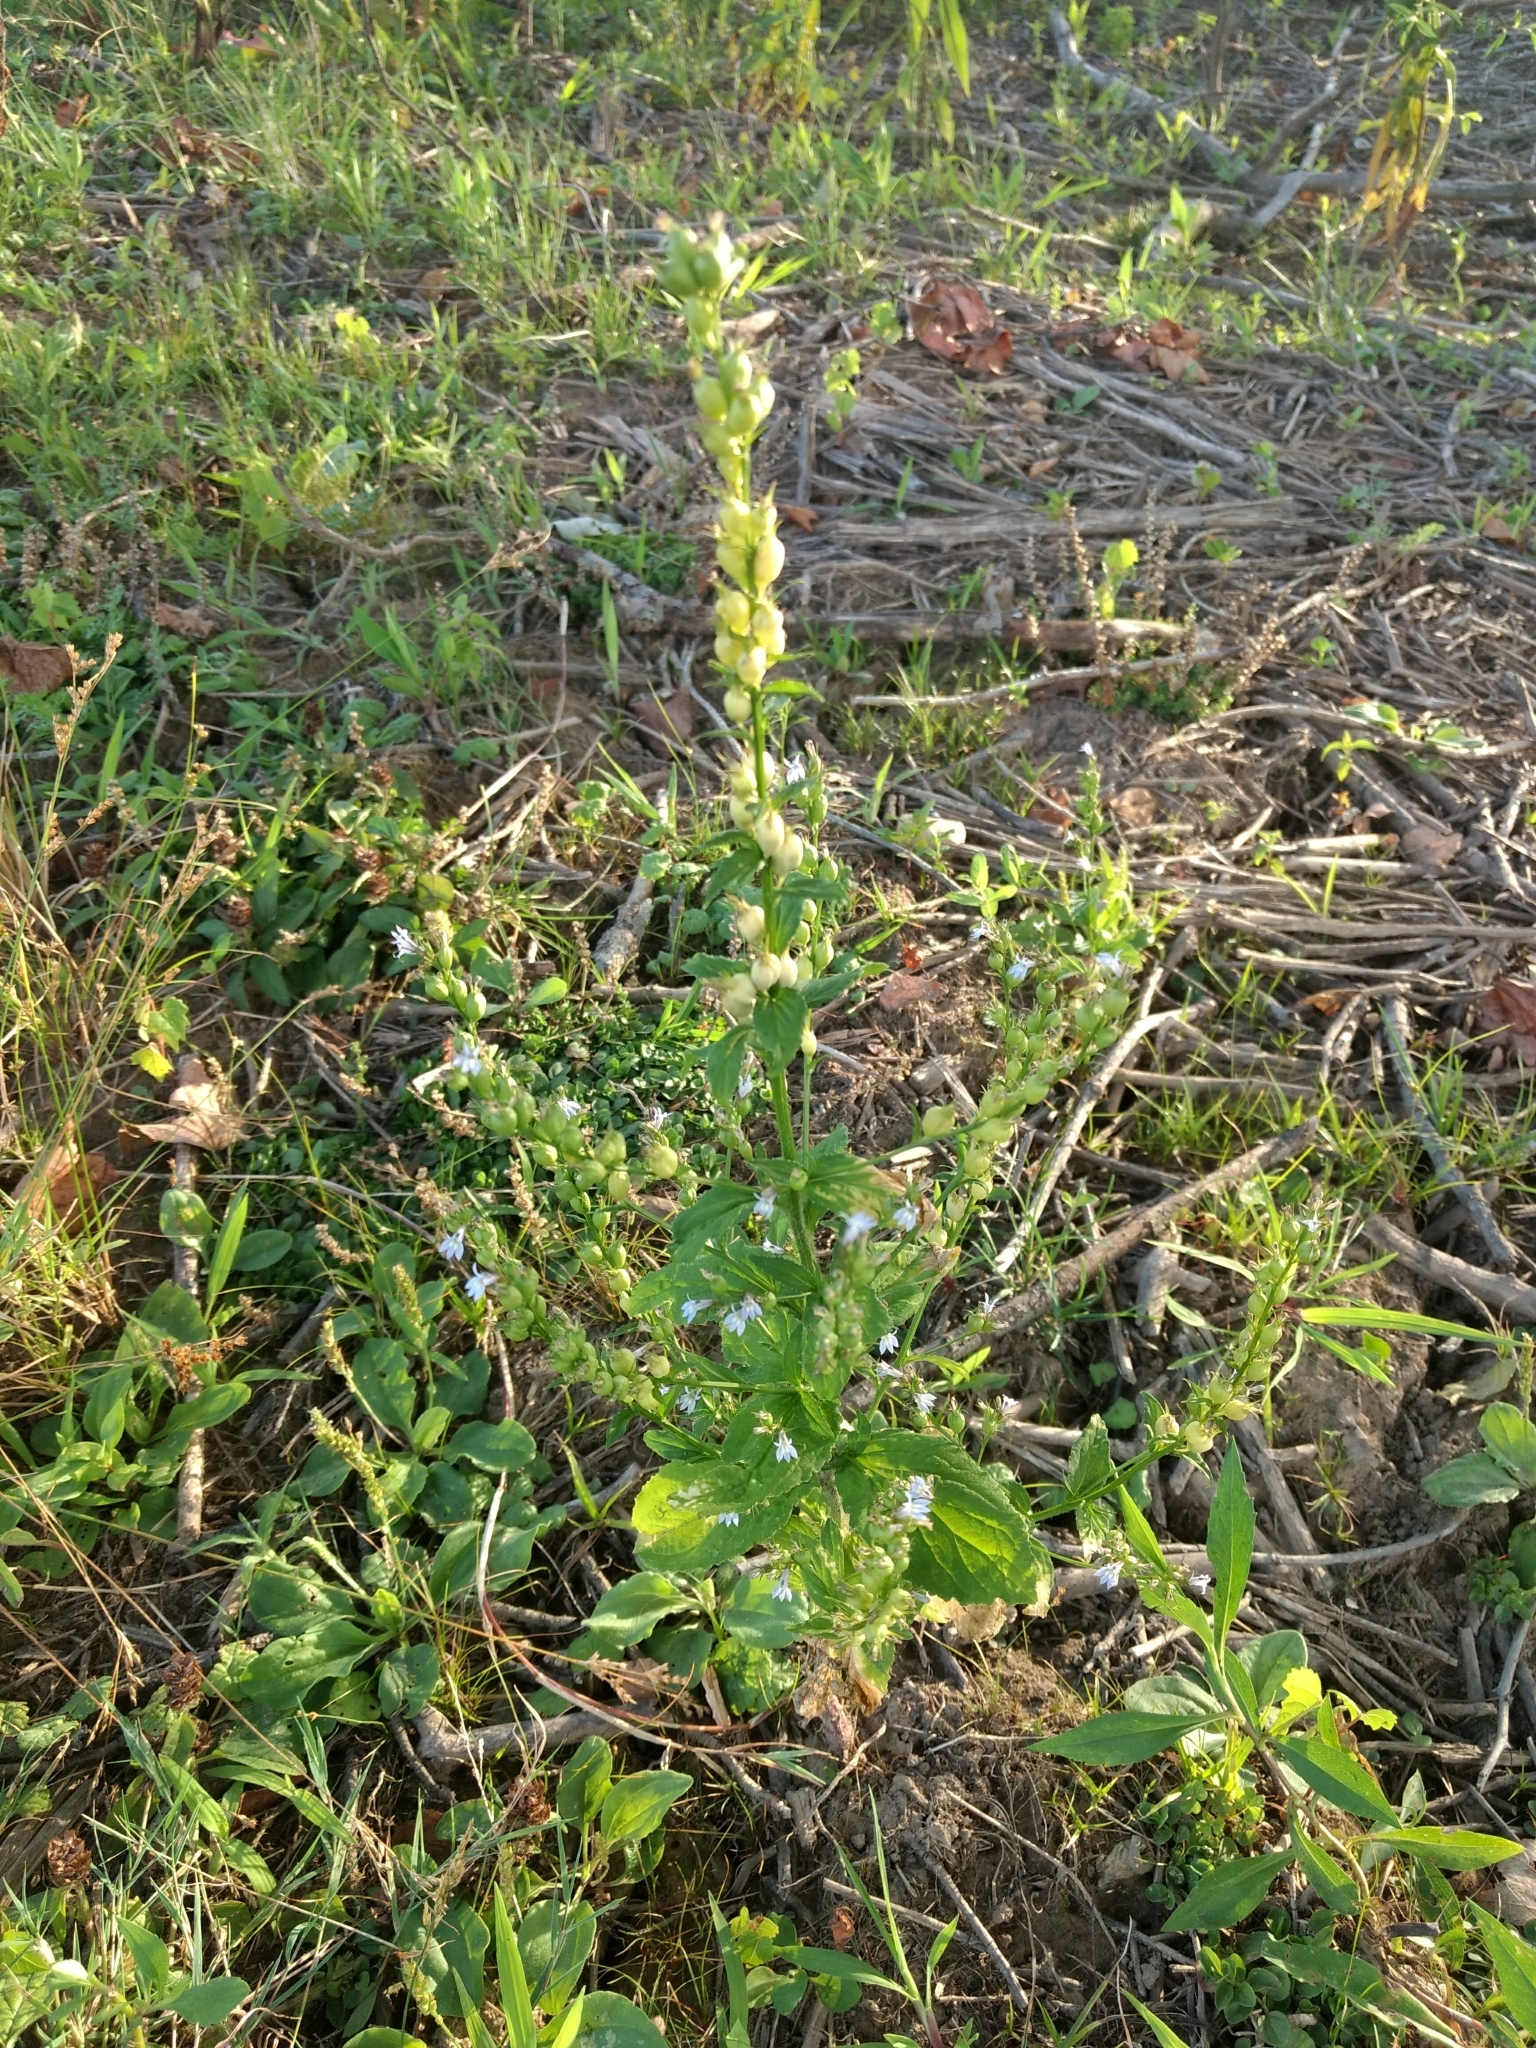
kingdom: Plantae
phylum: Tracheophyta
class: Magnoliopsida
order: Asterales
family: Campanulaceae
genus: Lobelia
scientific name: Lobelia inflata
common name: Indian tobacco
